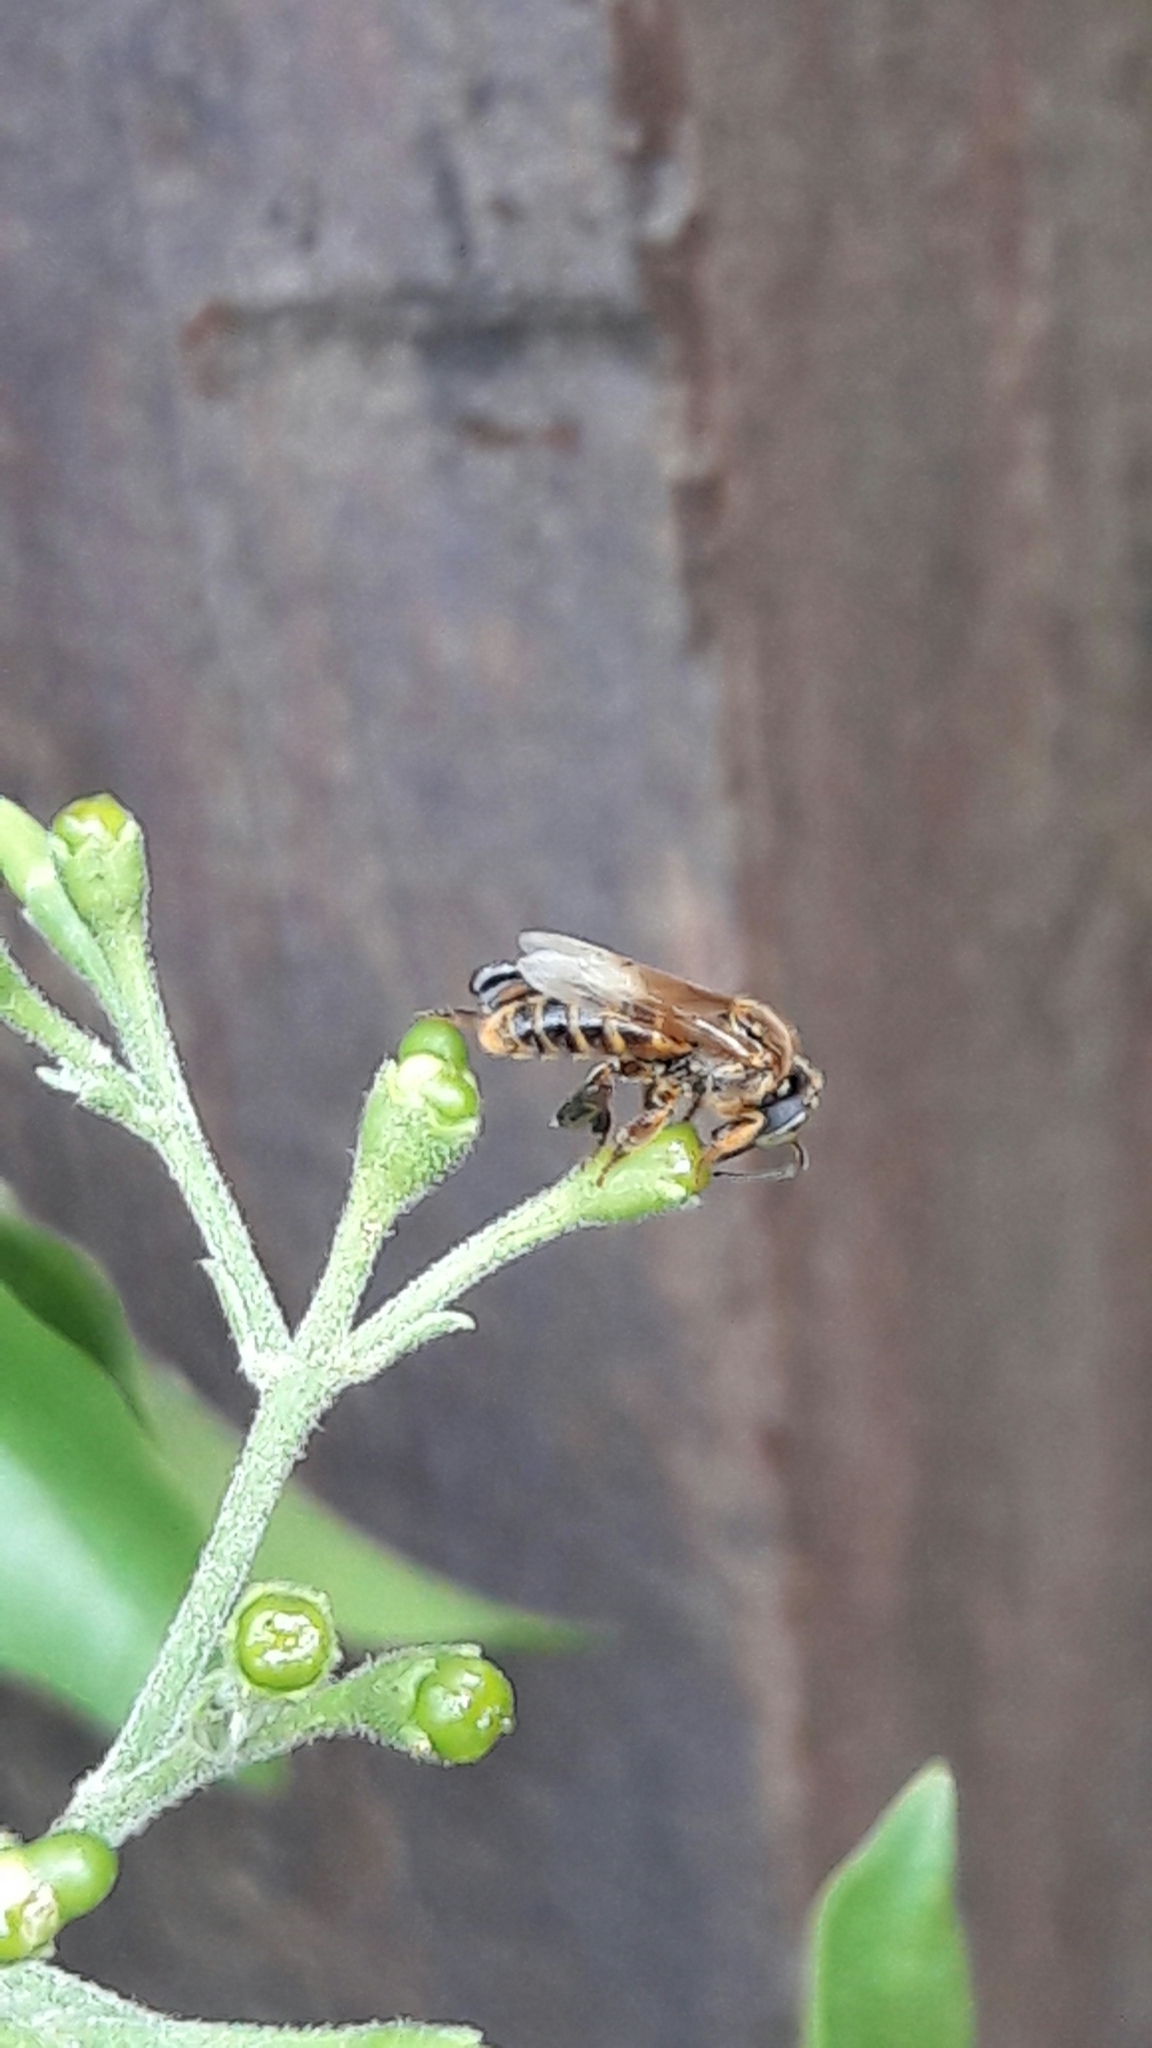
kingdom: Animalia
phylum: Arthropoda
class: Insecta
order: Hymenoptera
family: Apidae
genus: Tetragona
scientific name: Tetragona clavipes
